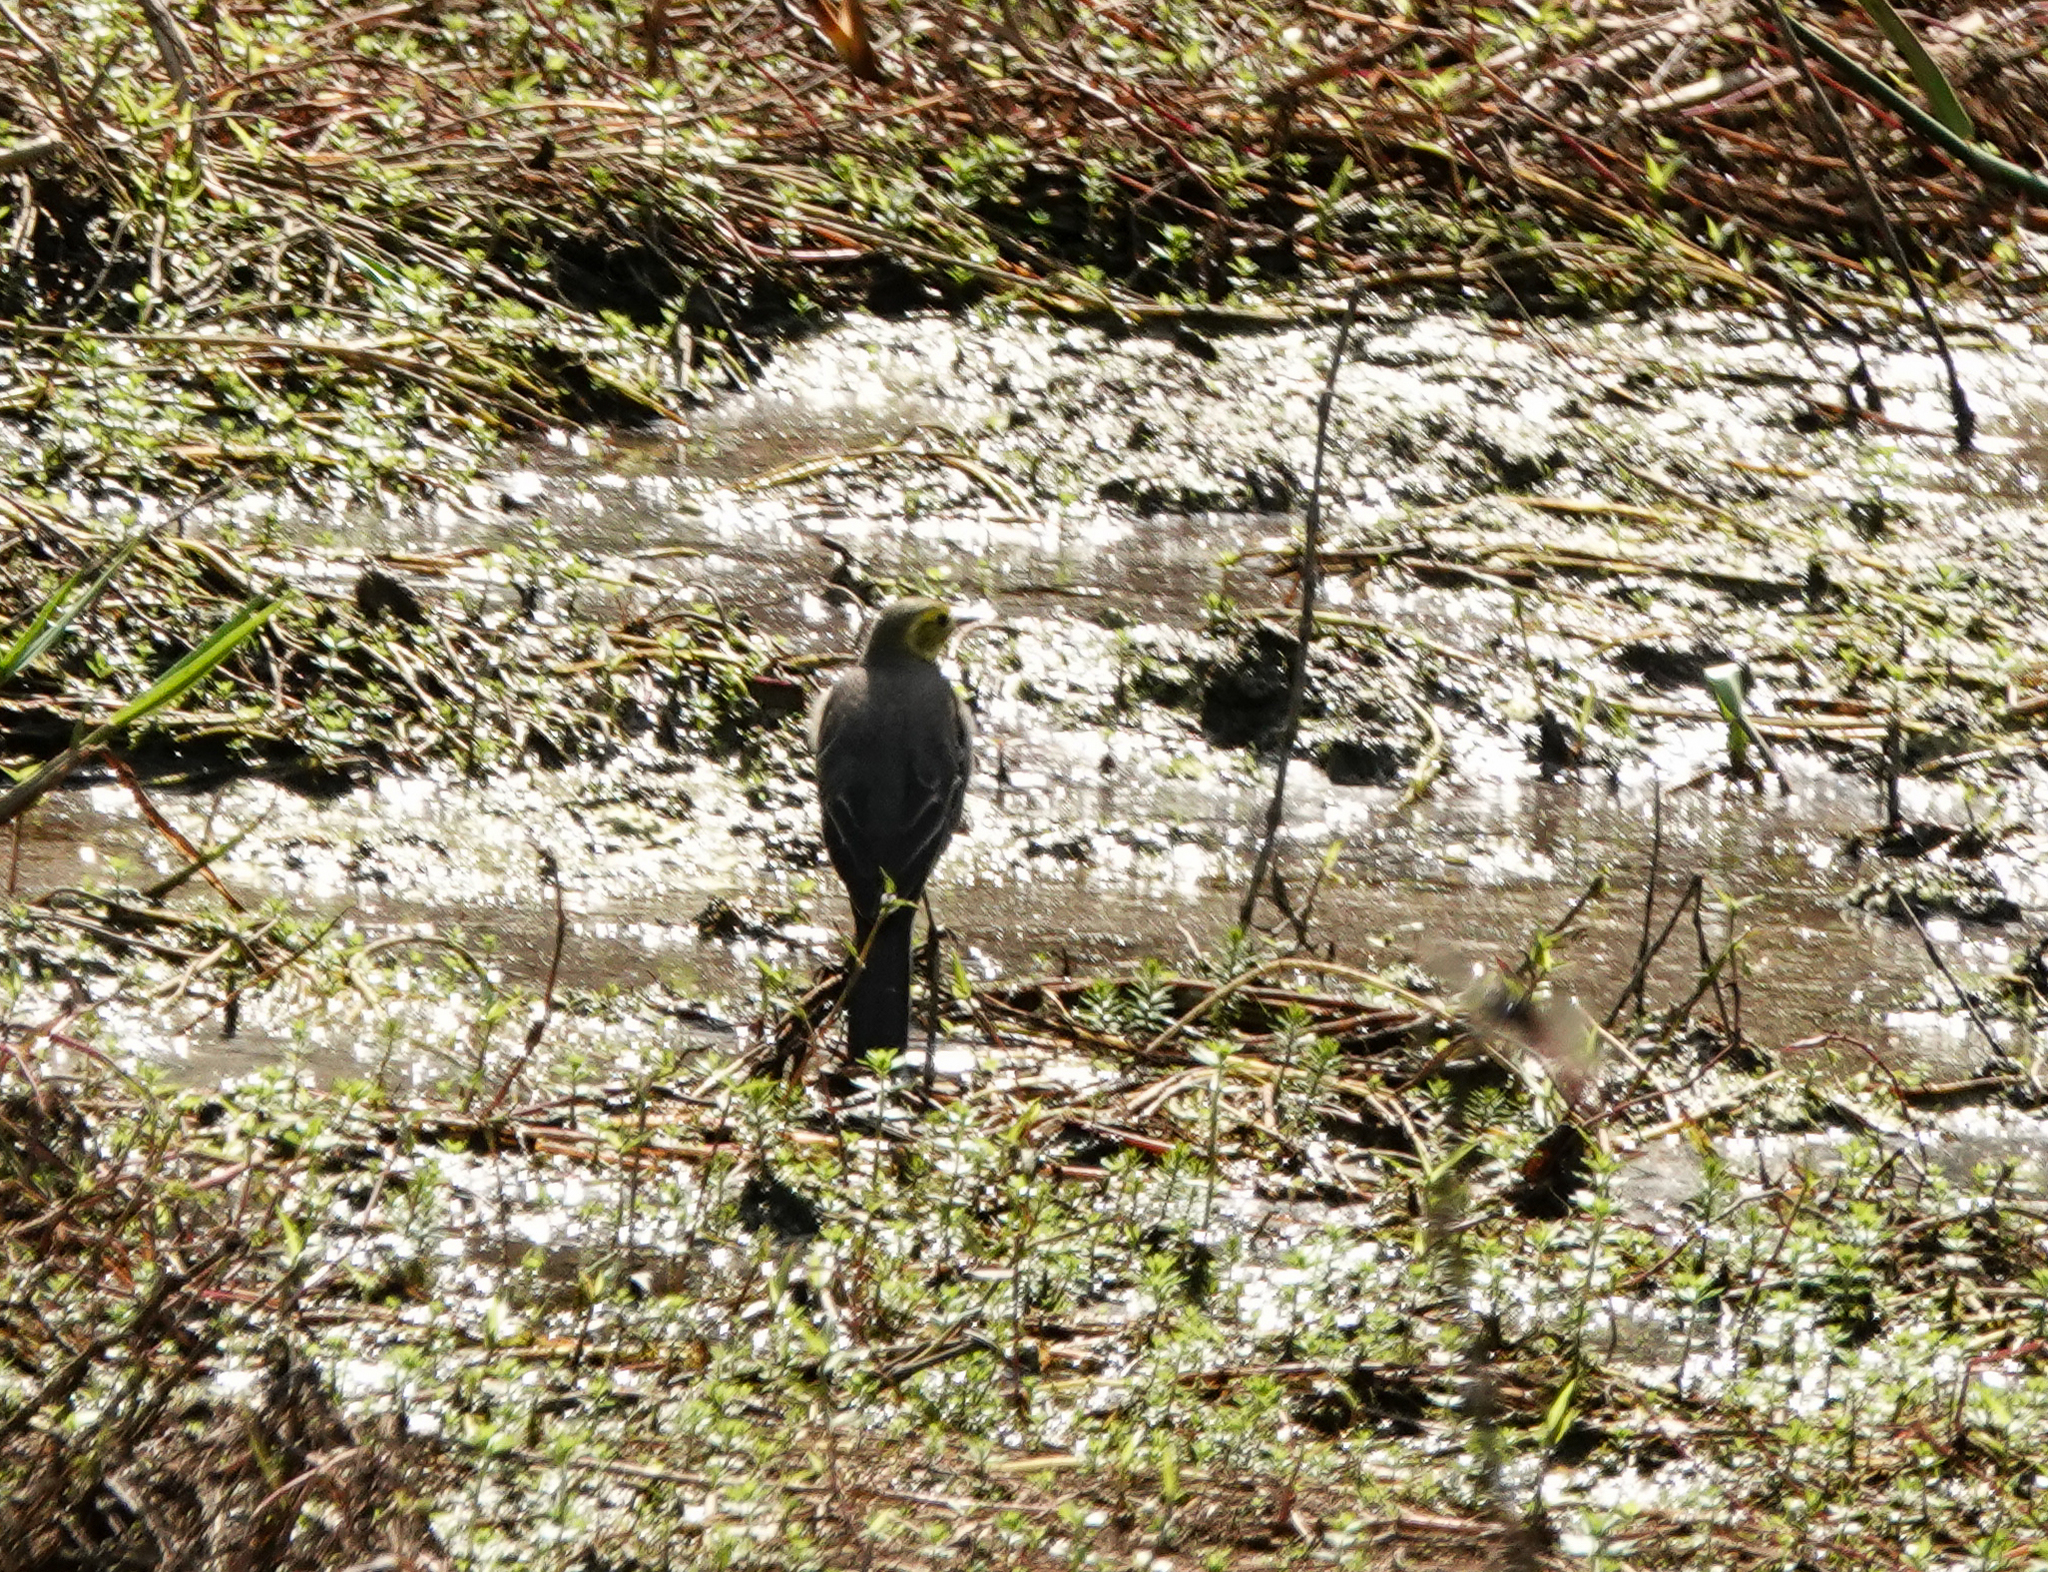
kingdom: Animalia
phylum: Chordata
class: Aves
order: Passeriformes
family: Motacillidae
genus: Motacilla
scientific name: Motacilla citreola
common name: Citrine wagtail
